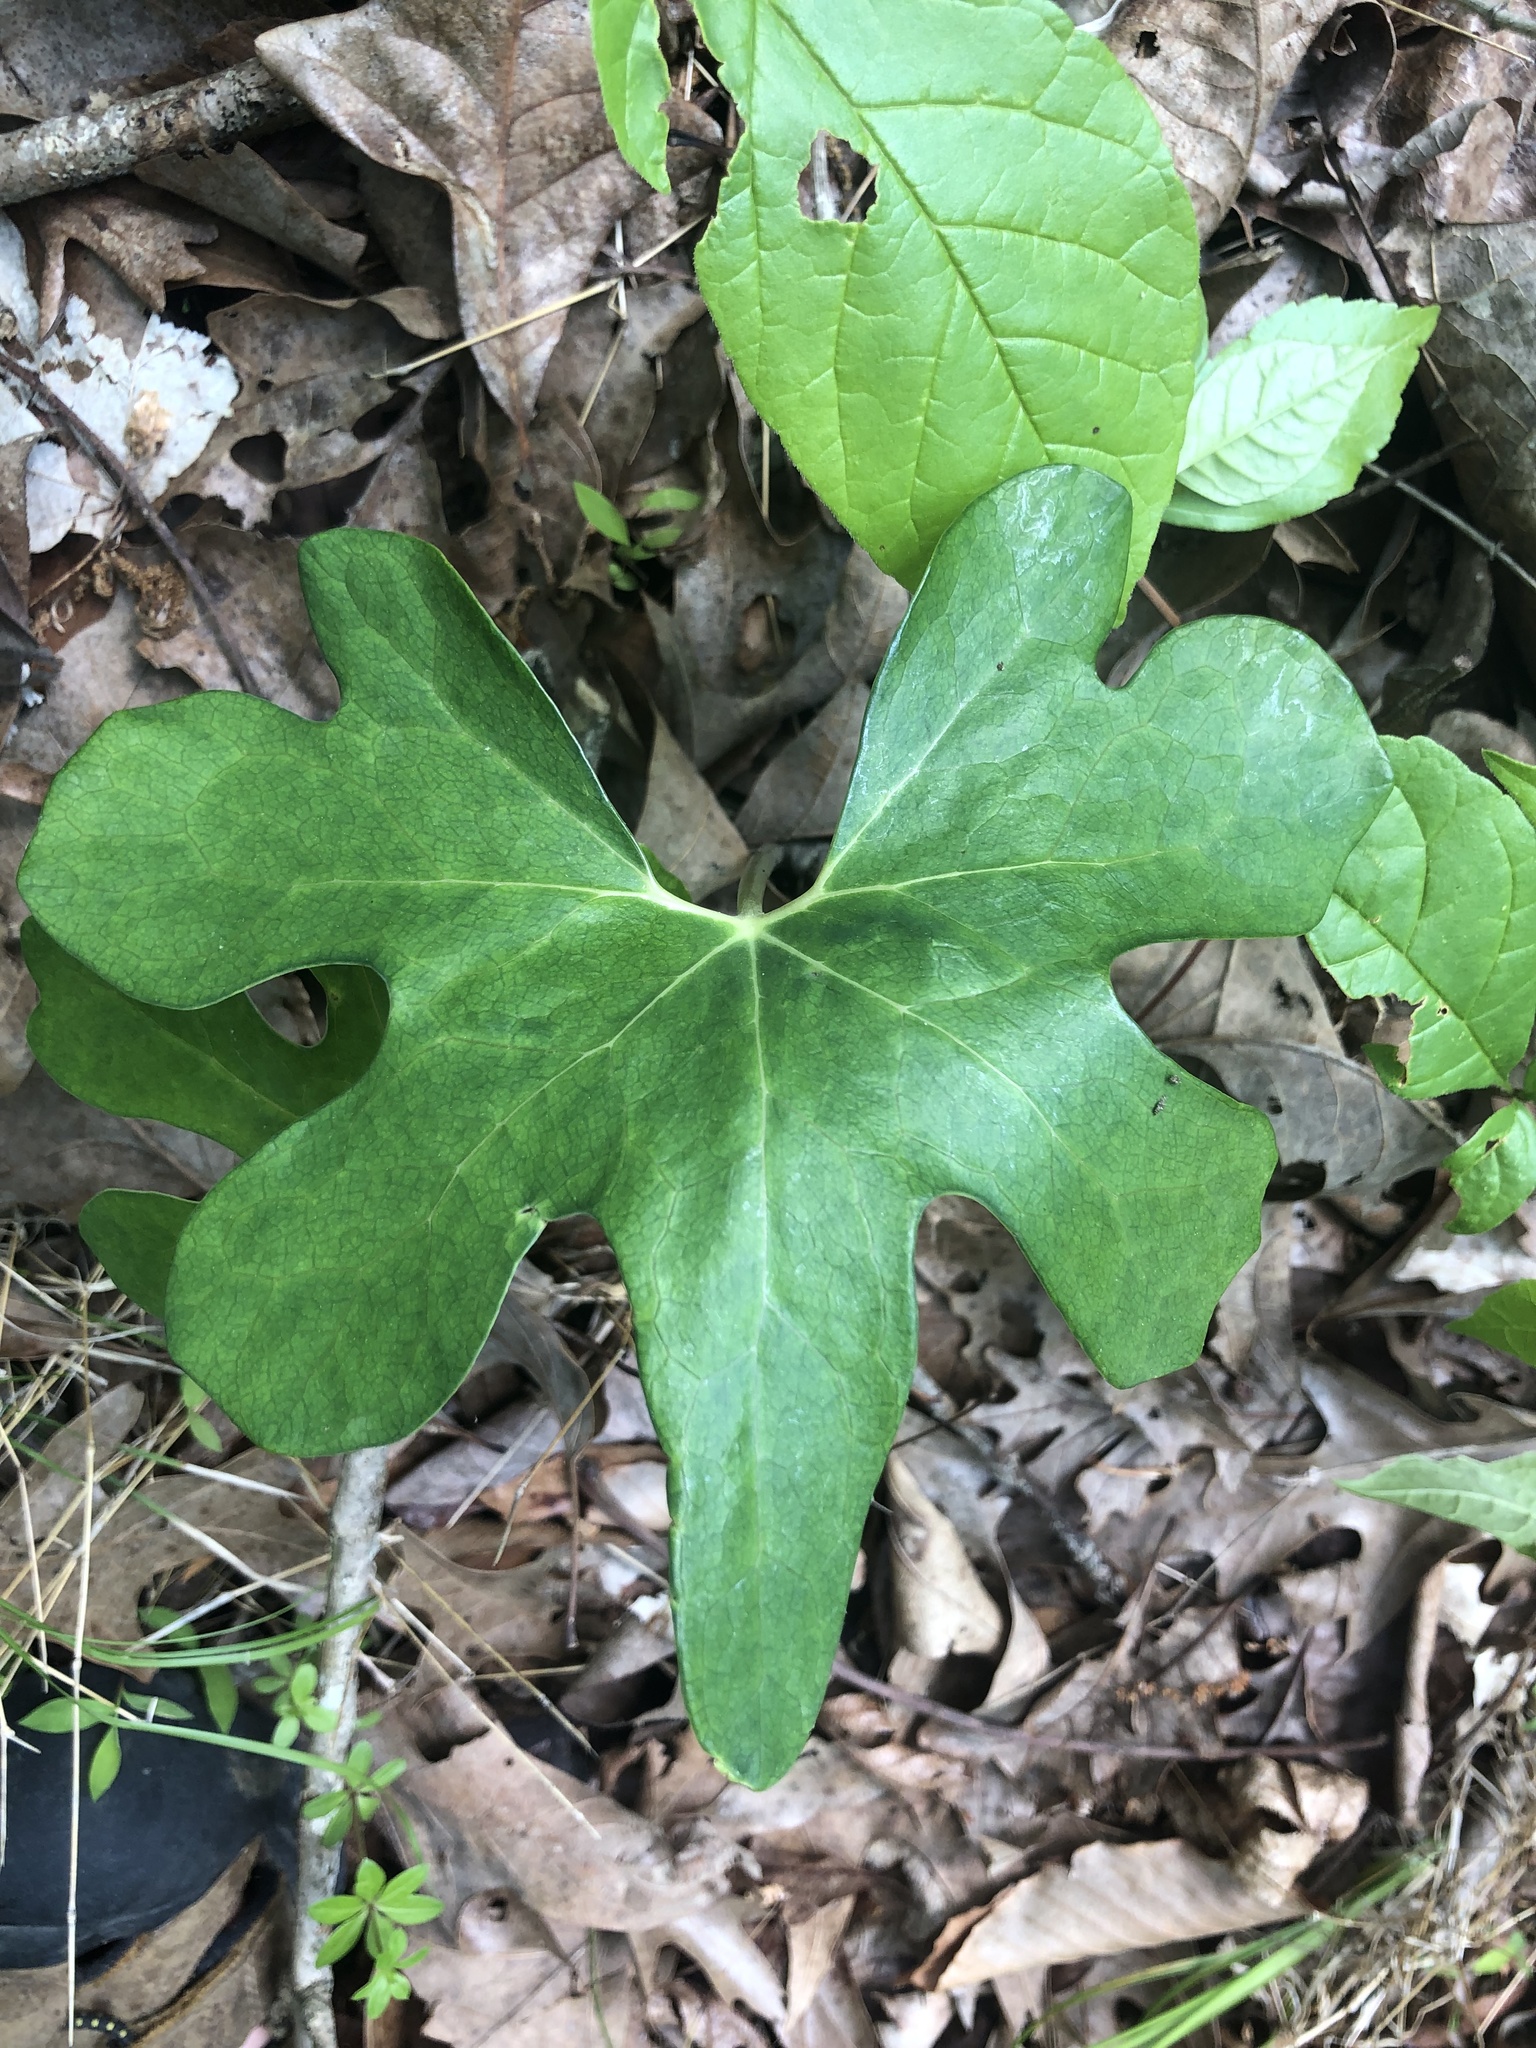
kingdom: Plantae
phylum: Tracheophyta
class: Magnoliopsida
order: Ranunculales
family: Papaveraceae
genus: Sanguinaria
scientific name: Sanguinaria canadensis
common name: Bloodroot
